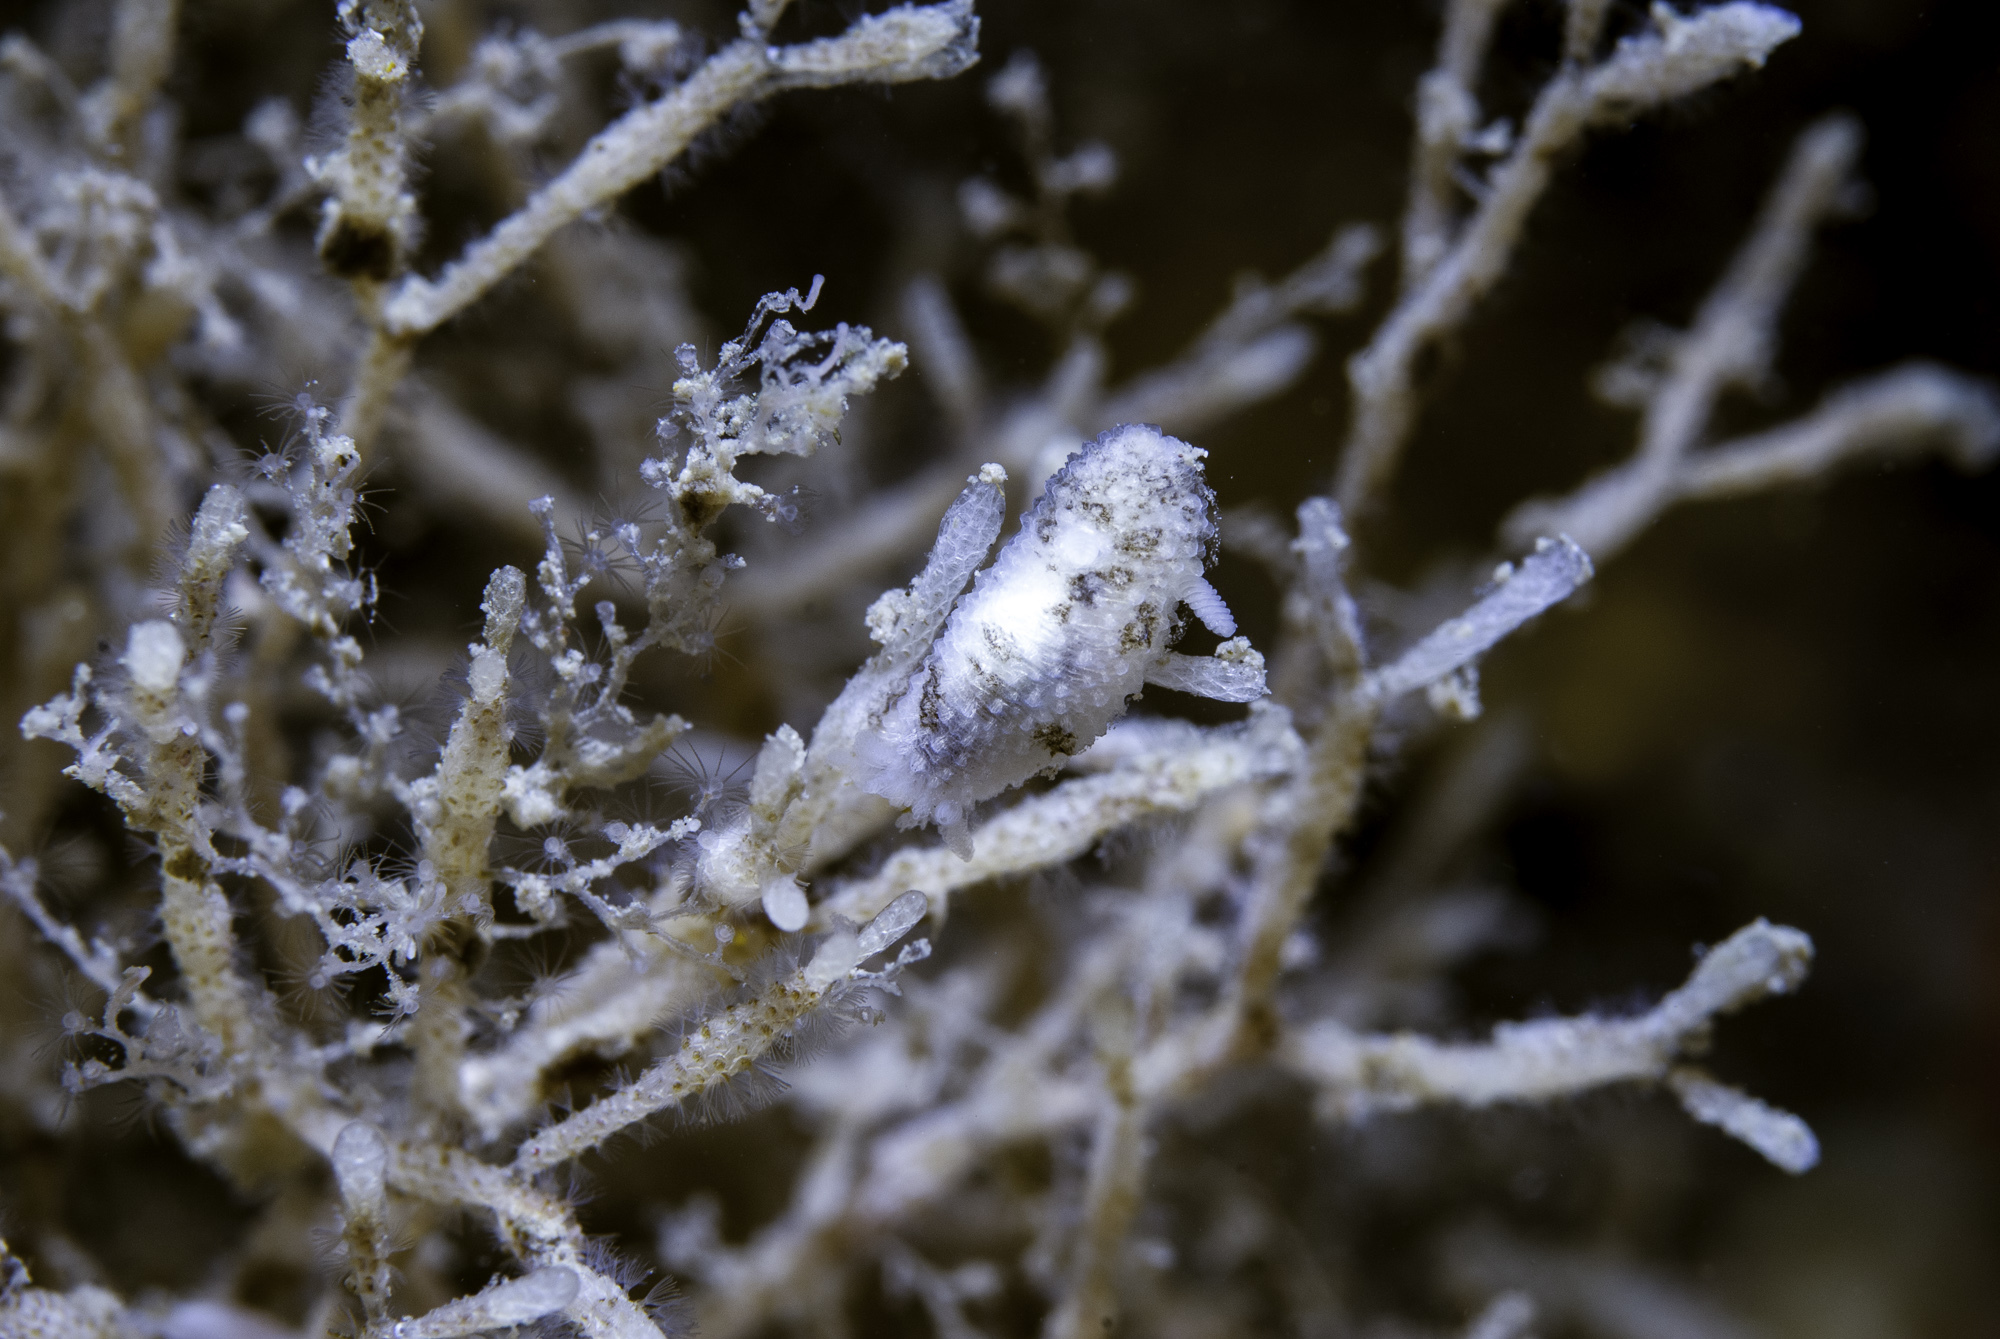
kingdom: Animalia
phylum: Mollusca
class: Gastropoda
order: Nudibranchia
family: Onchidorididae
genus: Atalodoris
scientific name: Atalodoris oblonga
